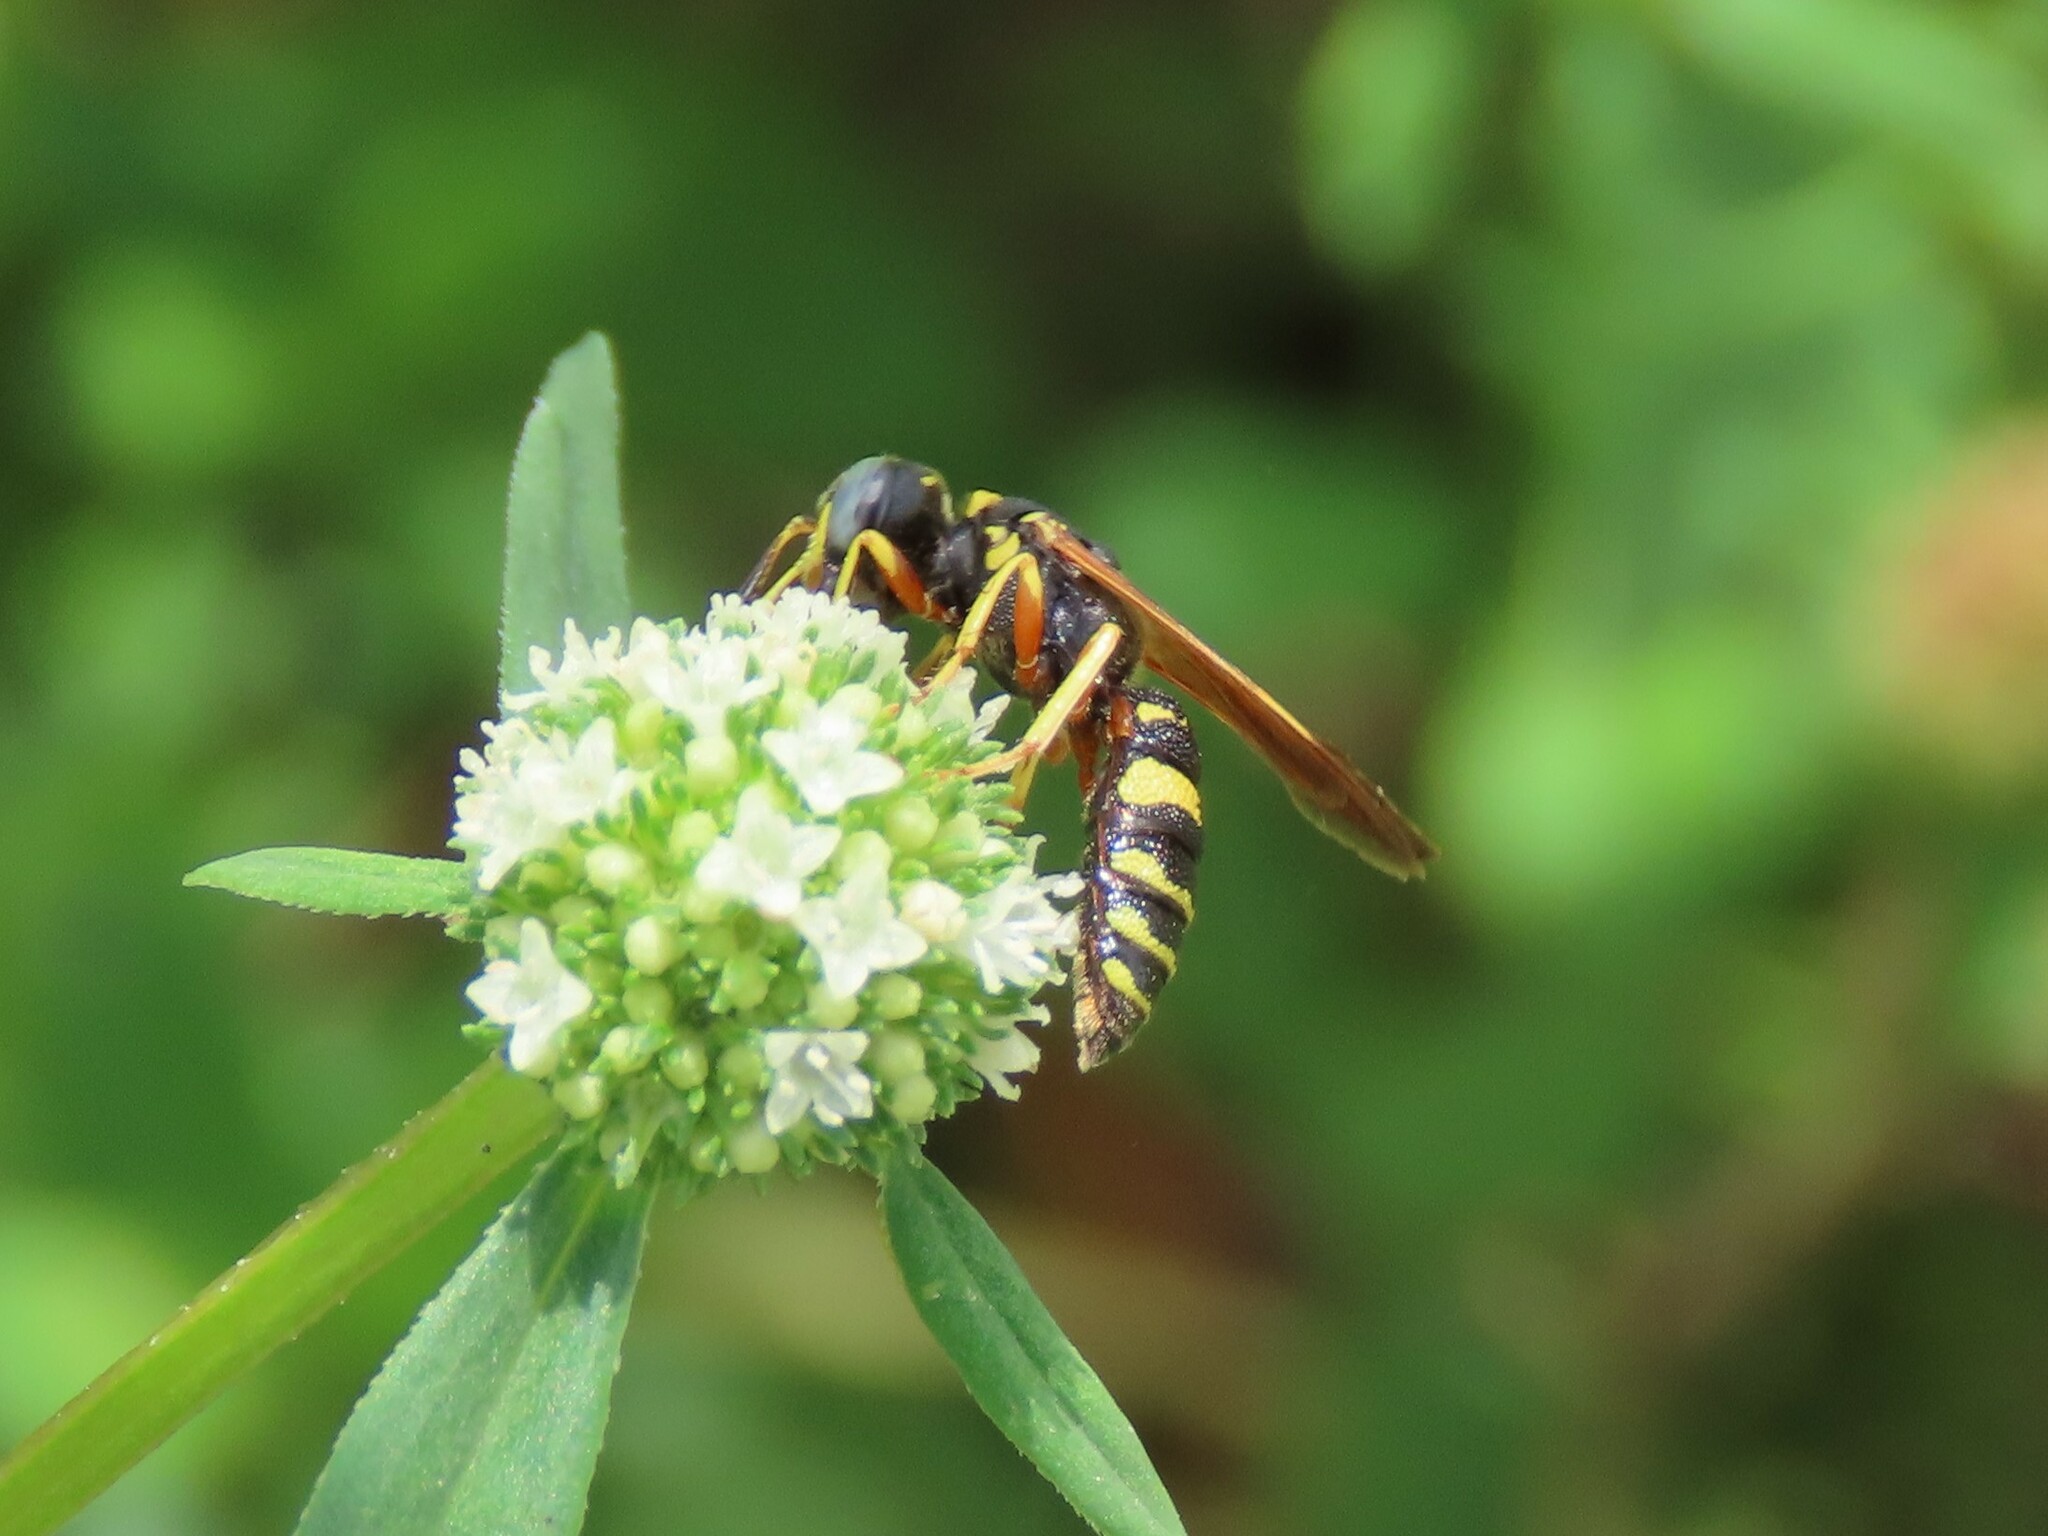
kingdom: Animalia
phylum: Arthropoda
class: Insecta
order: Hymenoptera
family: Crabronidae
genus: Philanthus
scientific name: Philanthus ventilabris
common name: Bee-killer wasp
